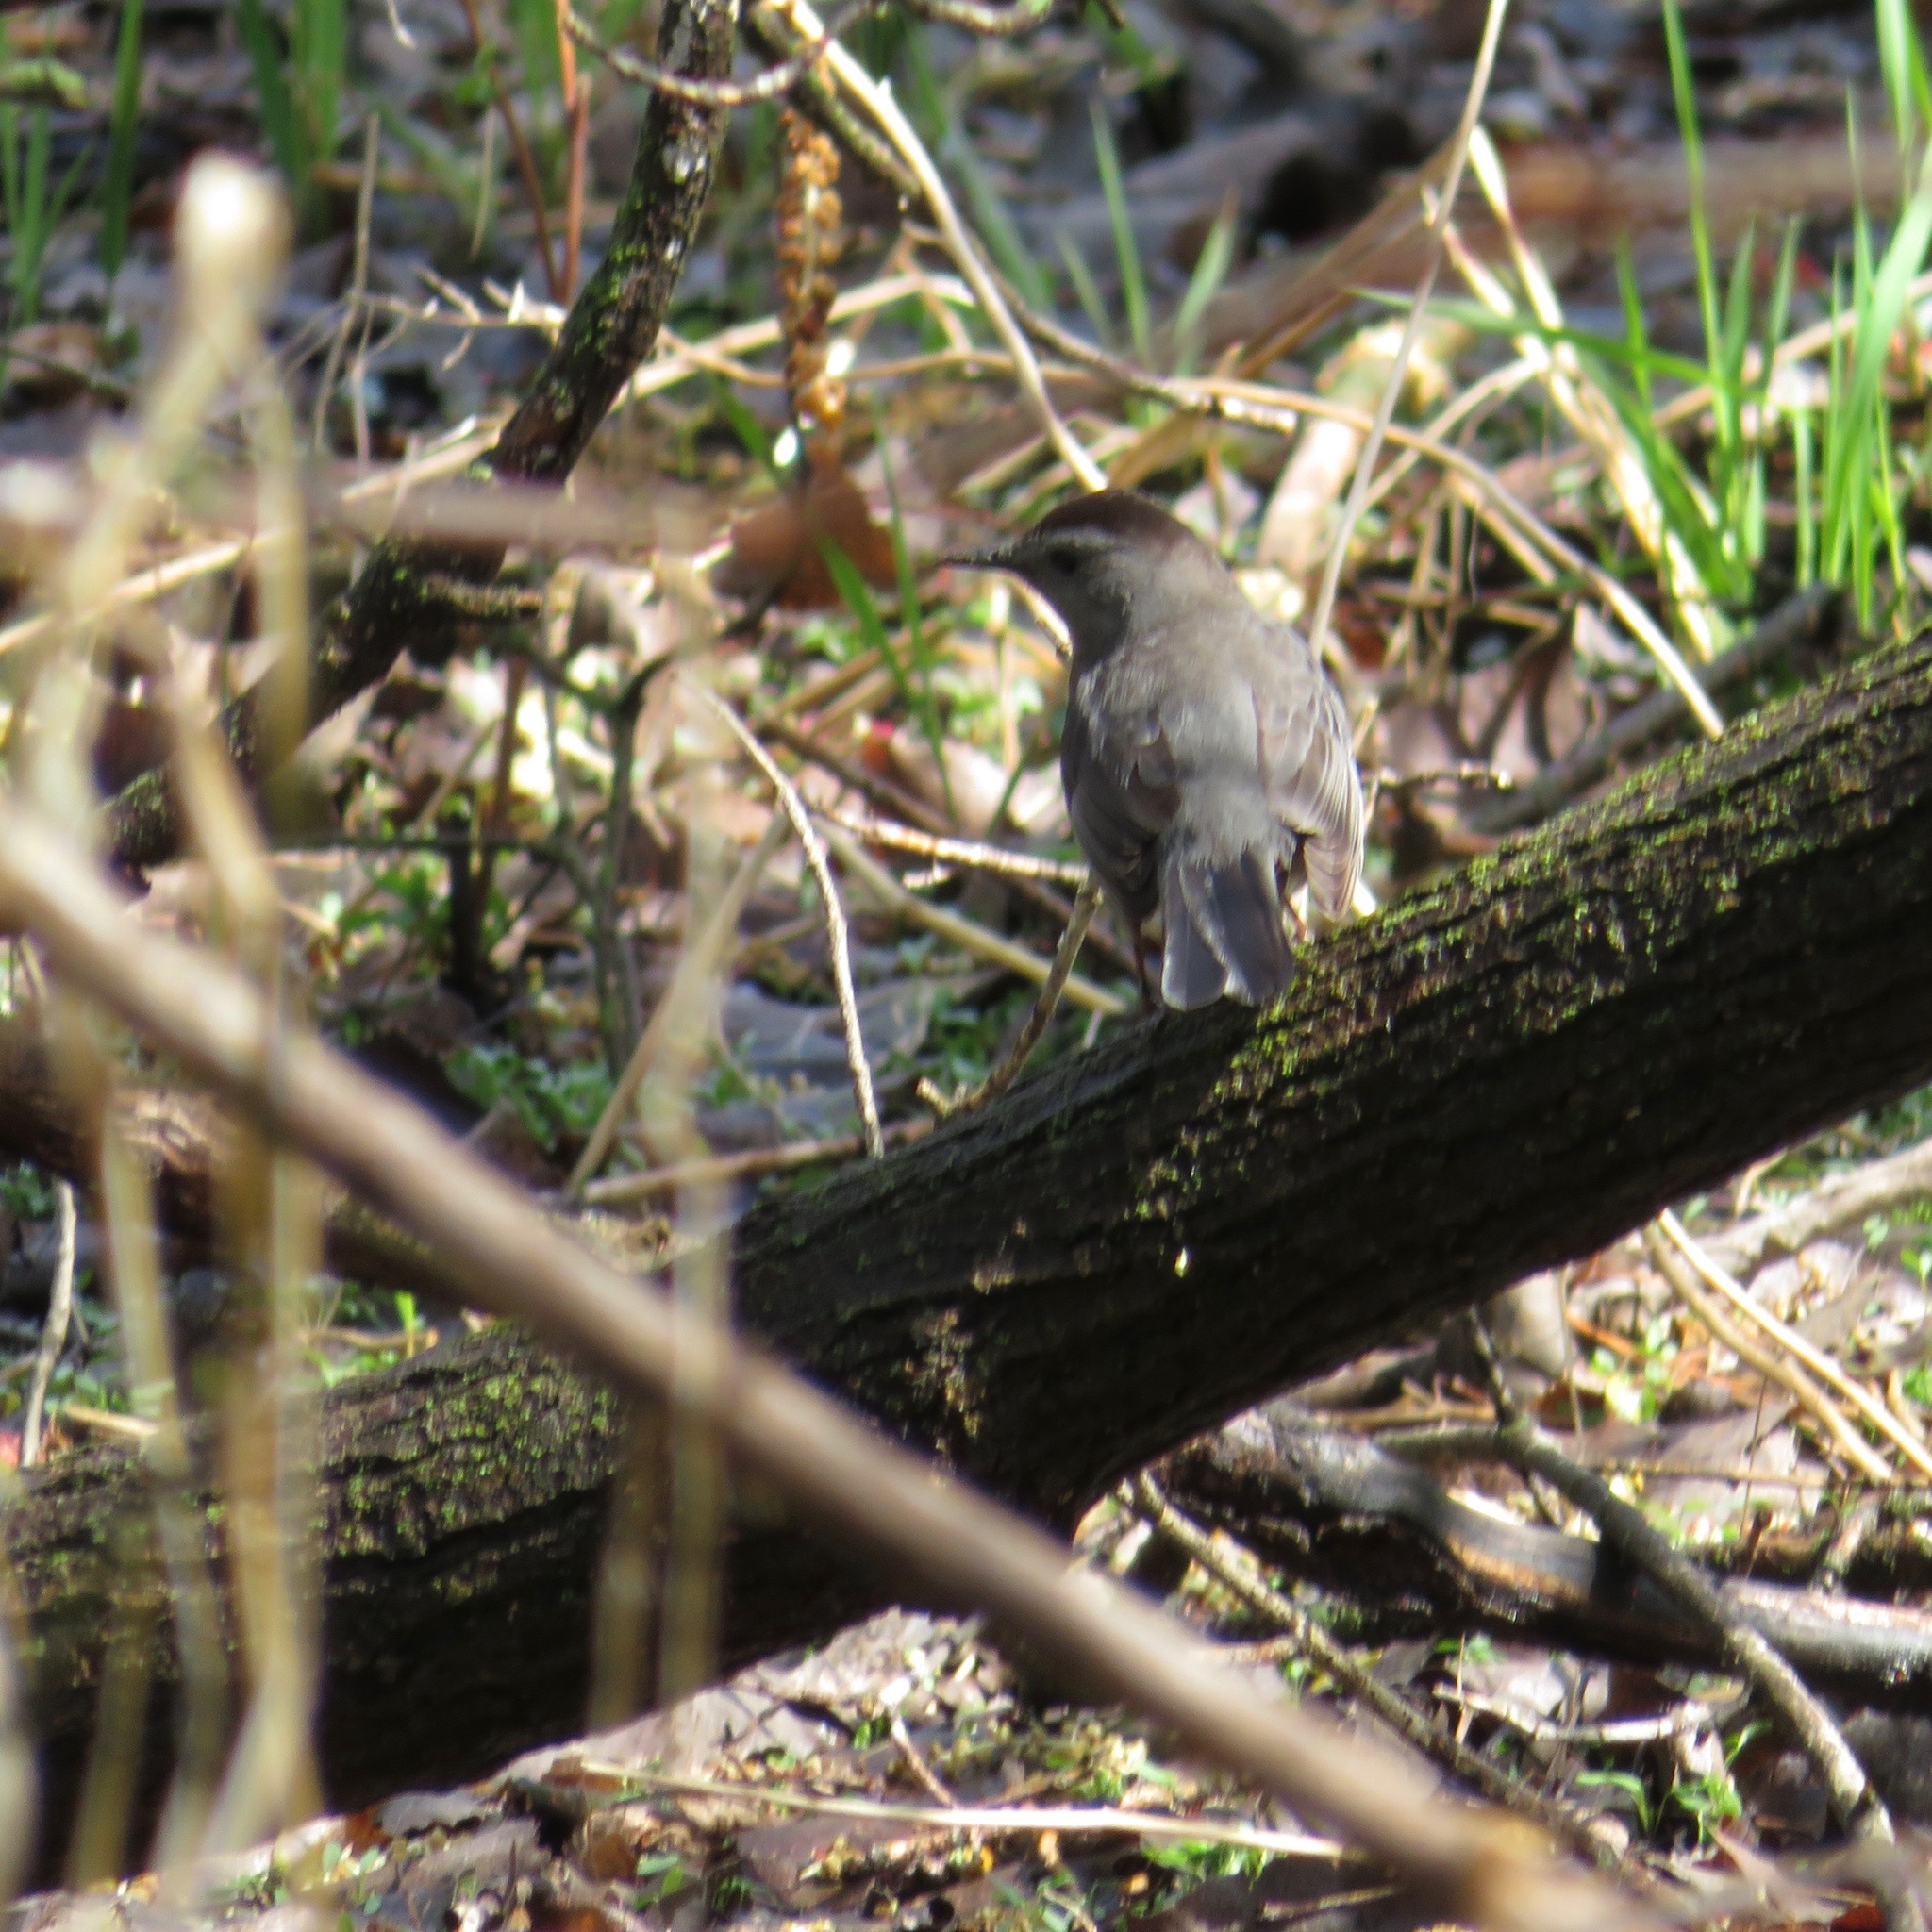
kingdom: Animalia
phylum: Chordata
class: Aves
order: Passeriformes
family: Mimidae
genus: Dumetella
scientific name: Dumetella carolinensis
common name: Gray catbird
